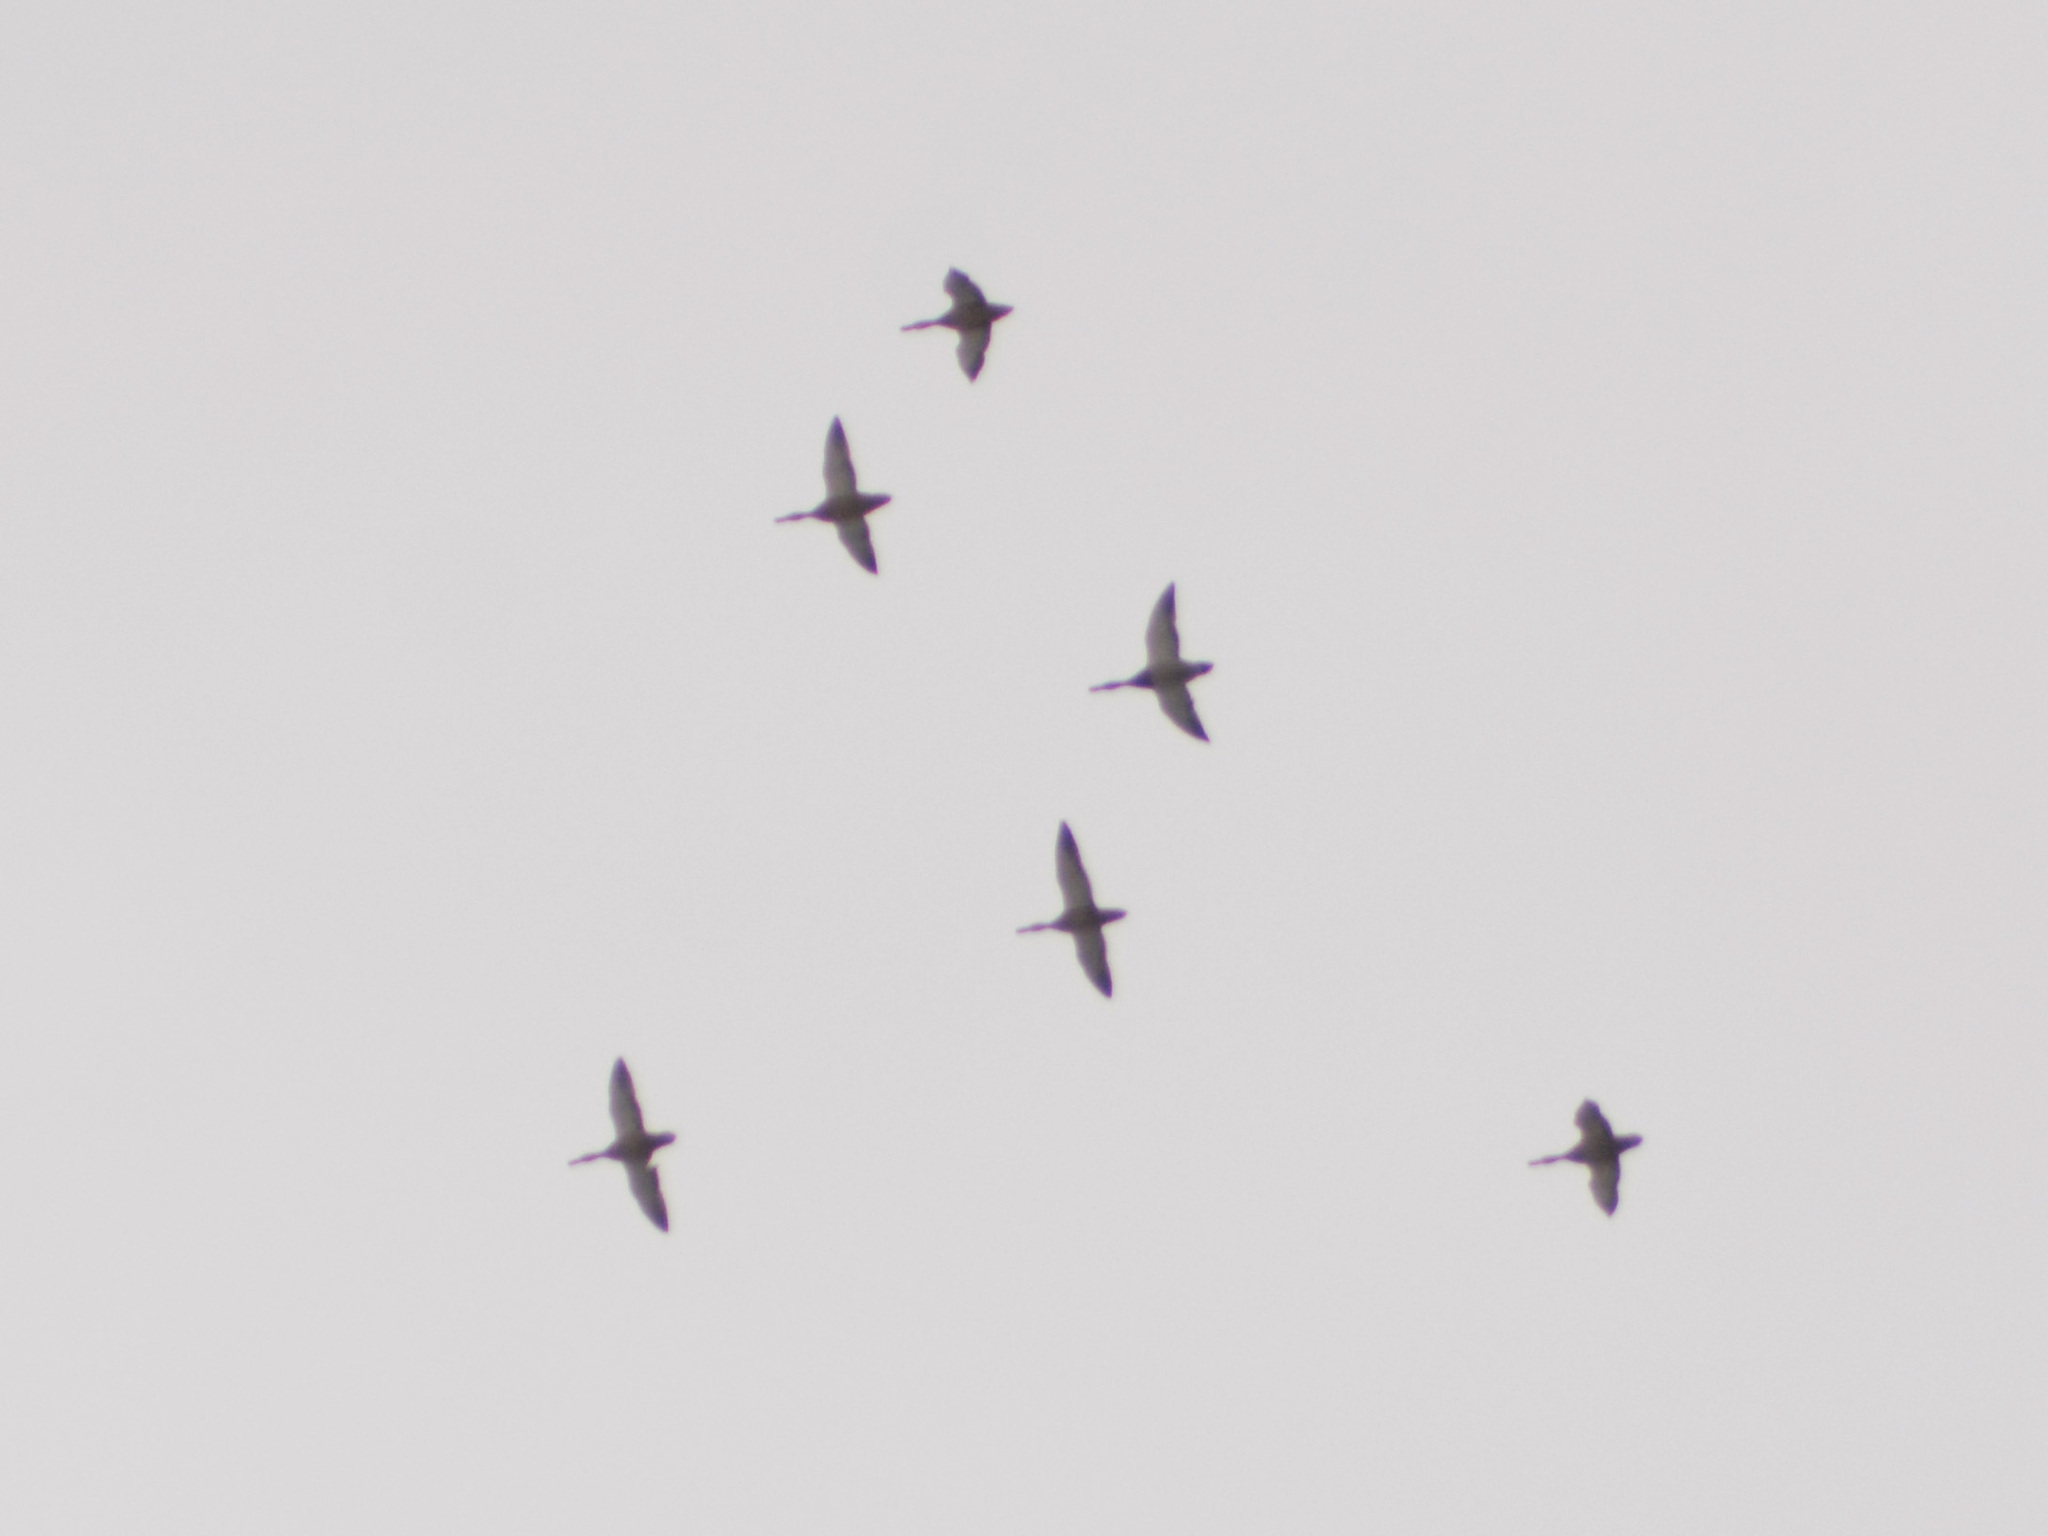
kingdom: Animalia
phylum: Chordata
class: Aves
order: Anseriformes
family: Anatidae
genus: Anas
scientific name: Anas platyrhynchos
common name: Mallard
